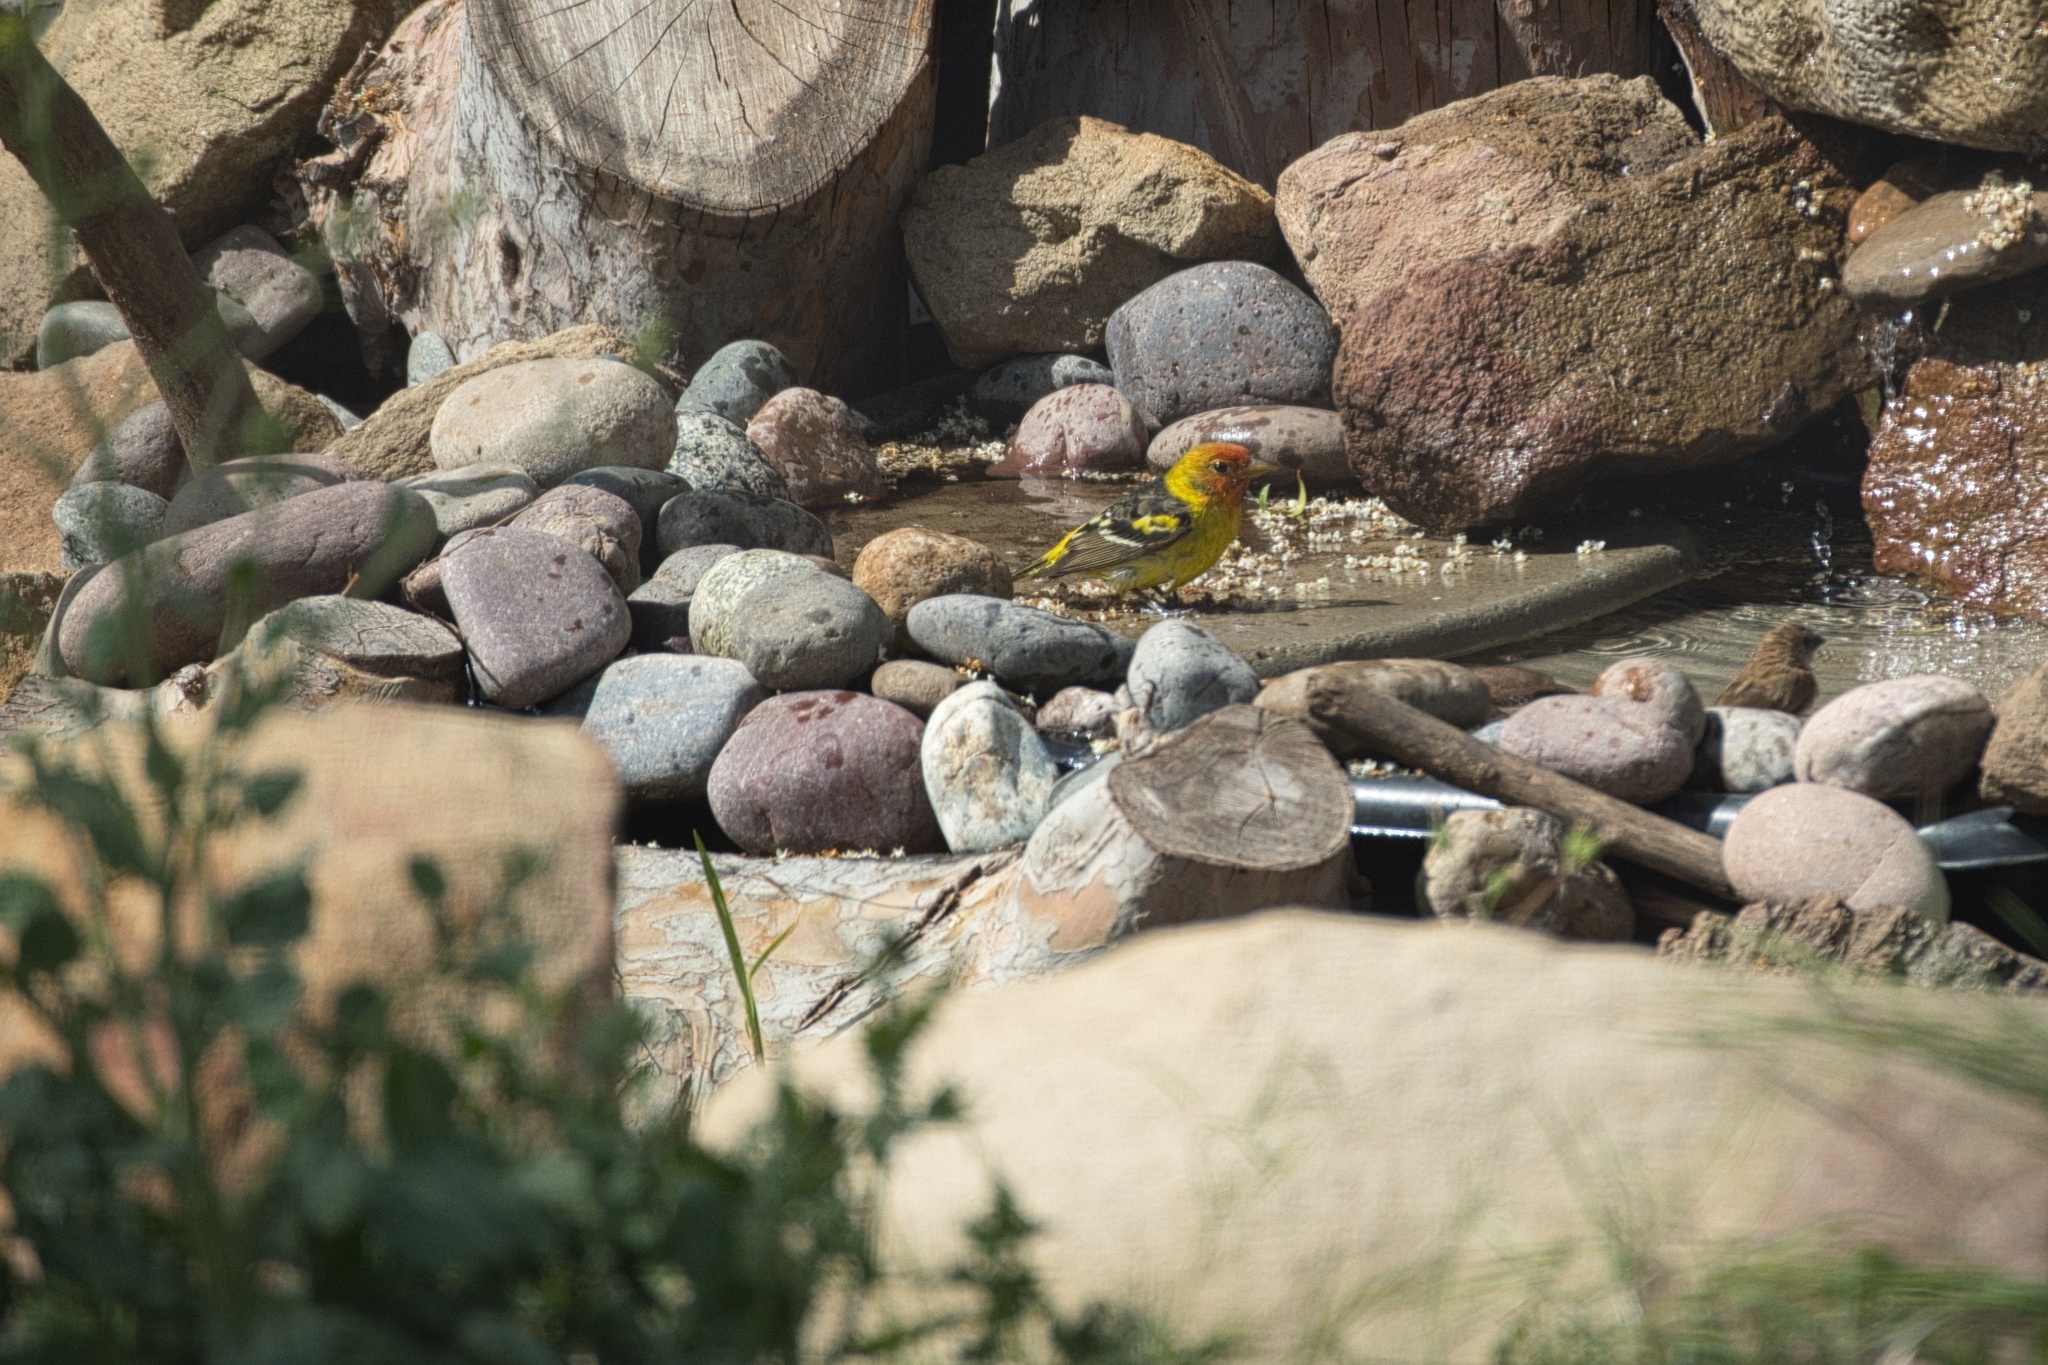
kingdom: Animalia
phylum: Chordata
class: Aves
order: Passeriformes
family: Cardinalidae
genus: Piranga
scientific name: Piranga ludoviciana
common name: Western tanager
